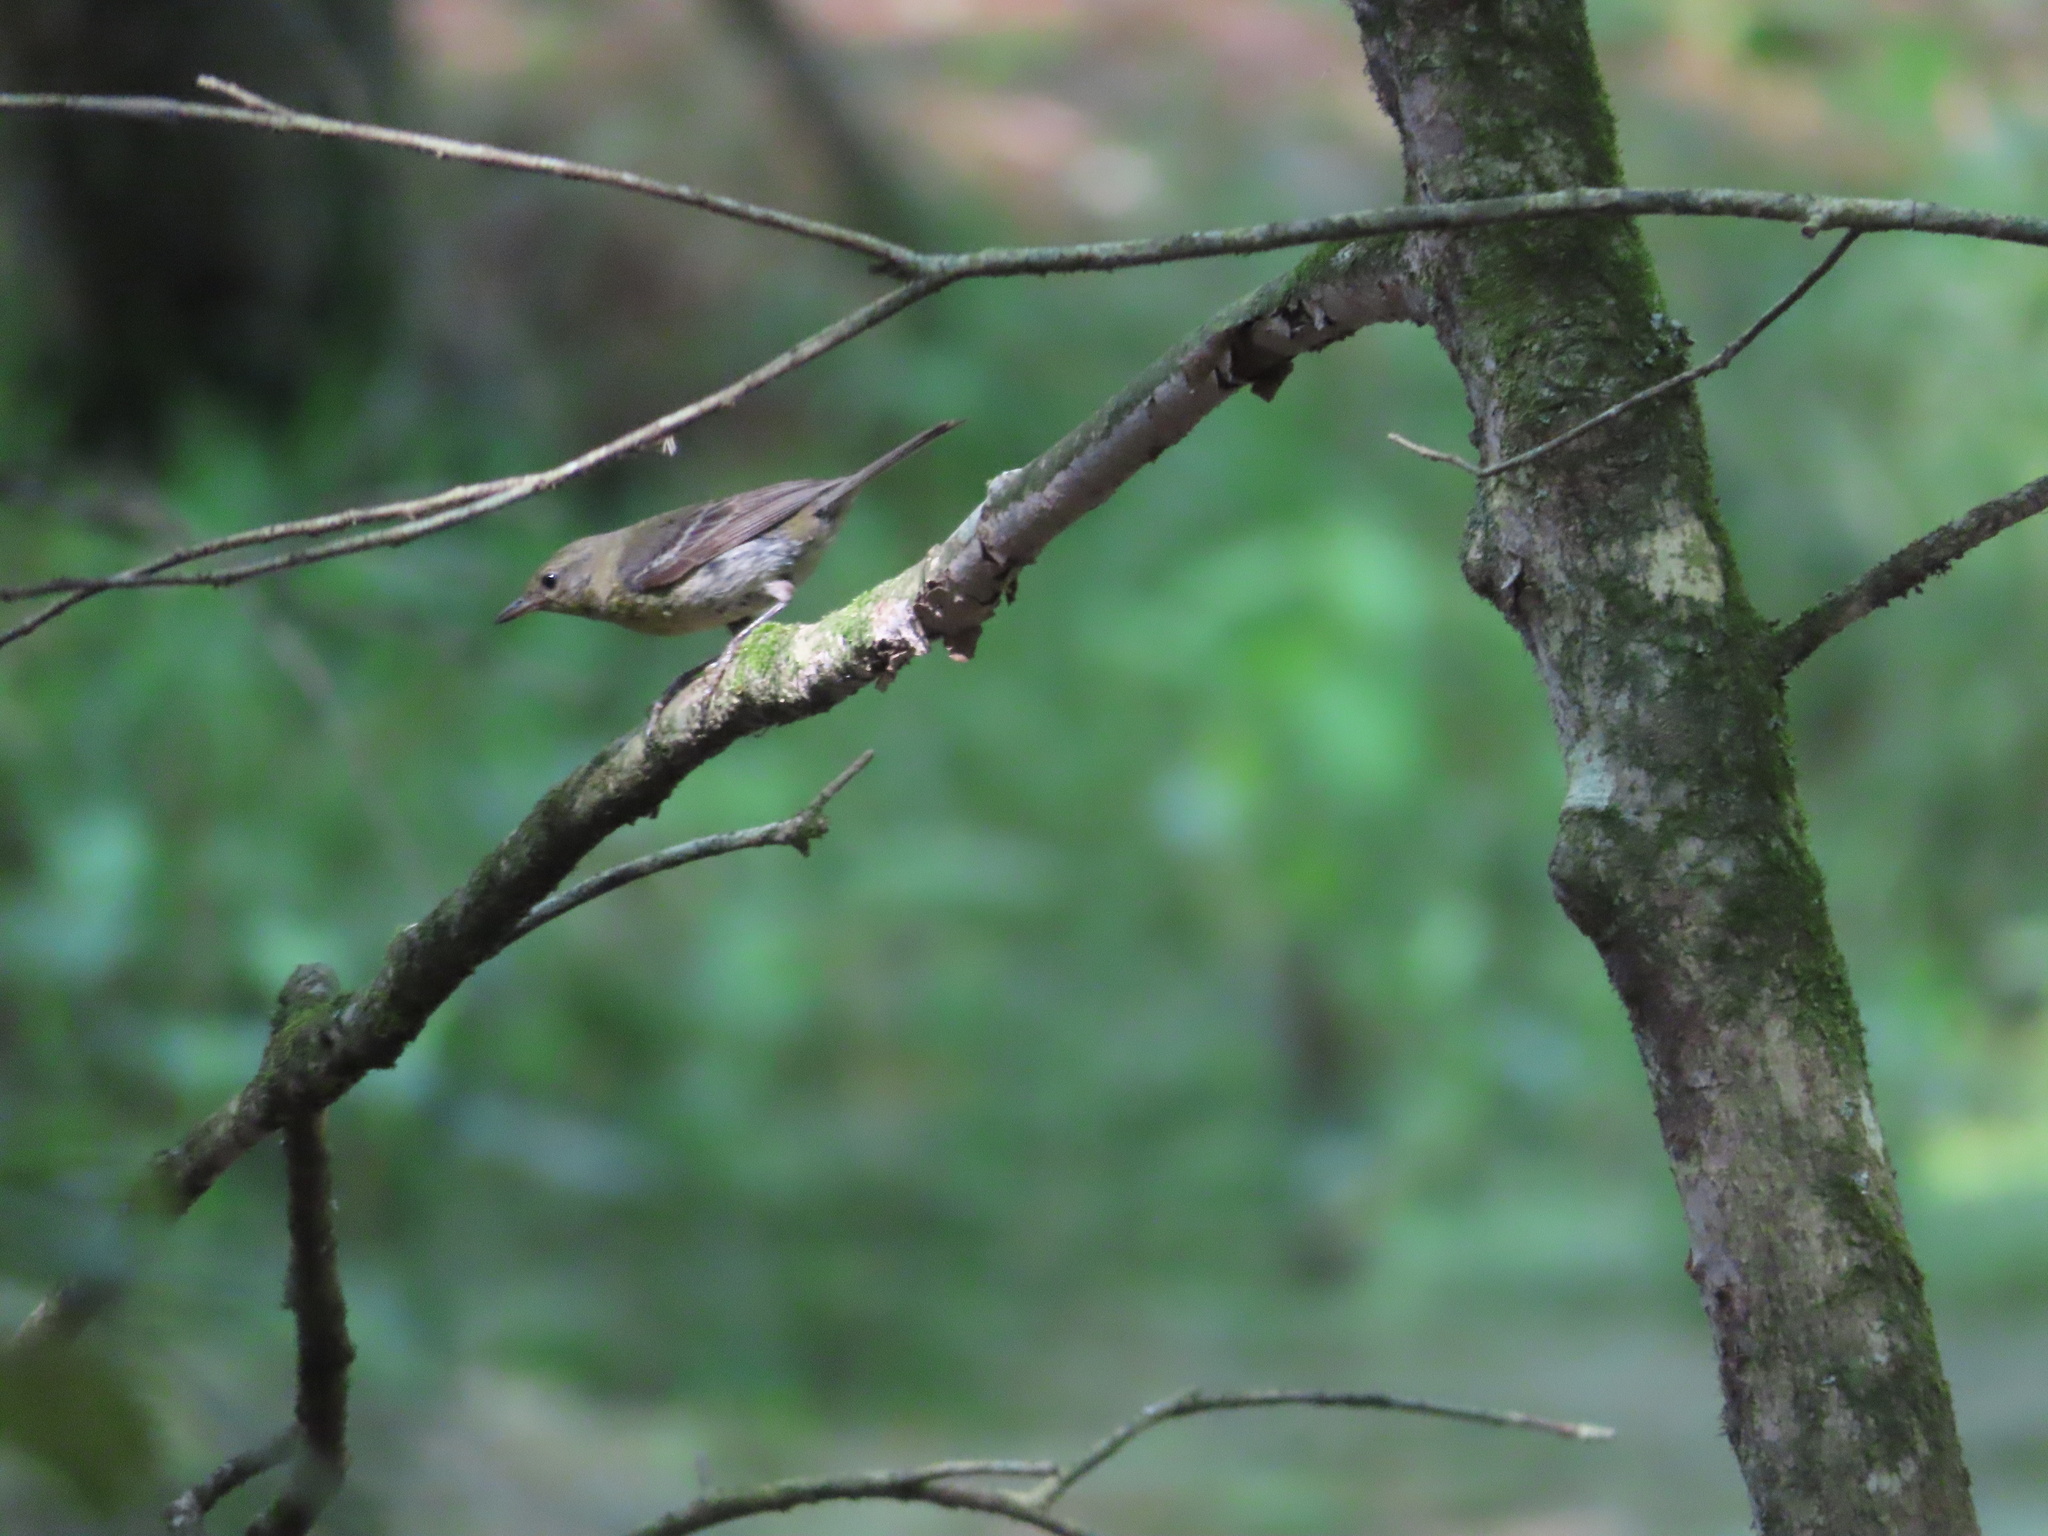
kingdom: Animalia
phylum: Chordata
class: Aves
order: Passeriformes
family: Parulidae
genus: Setophaga
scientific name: Setophaga pinus
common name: Pine warbler
